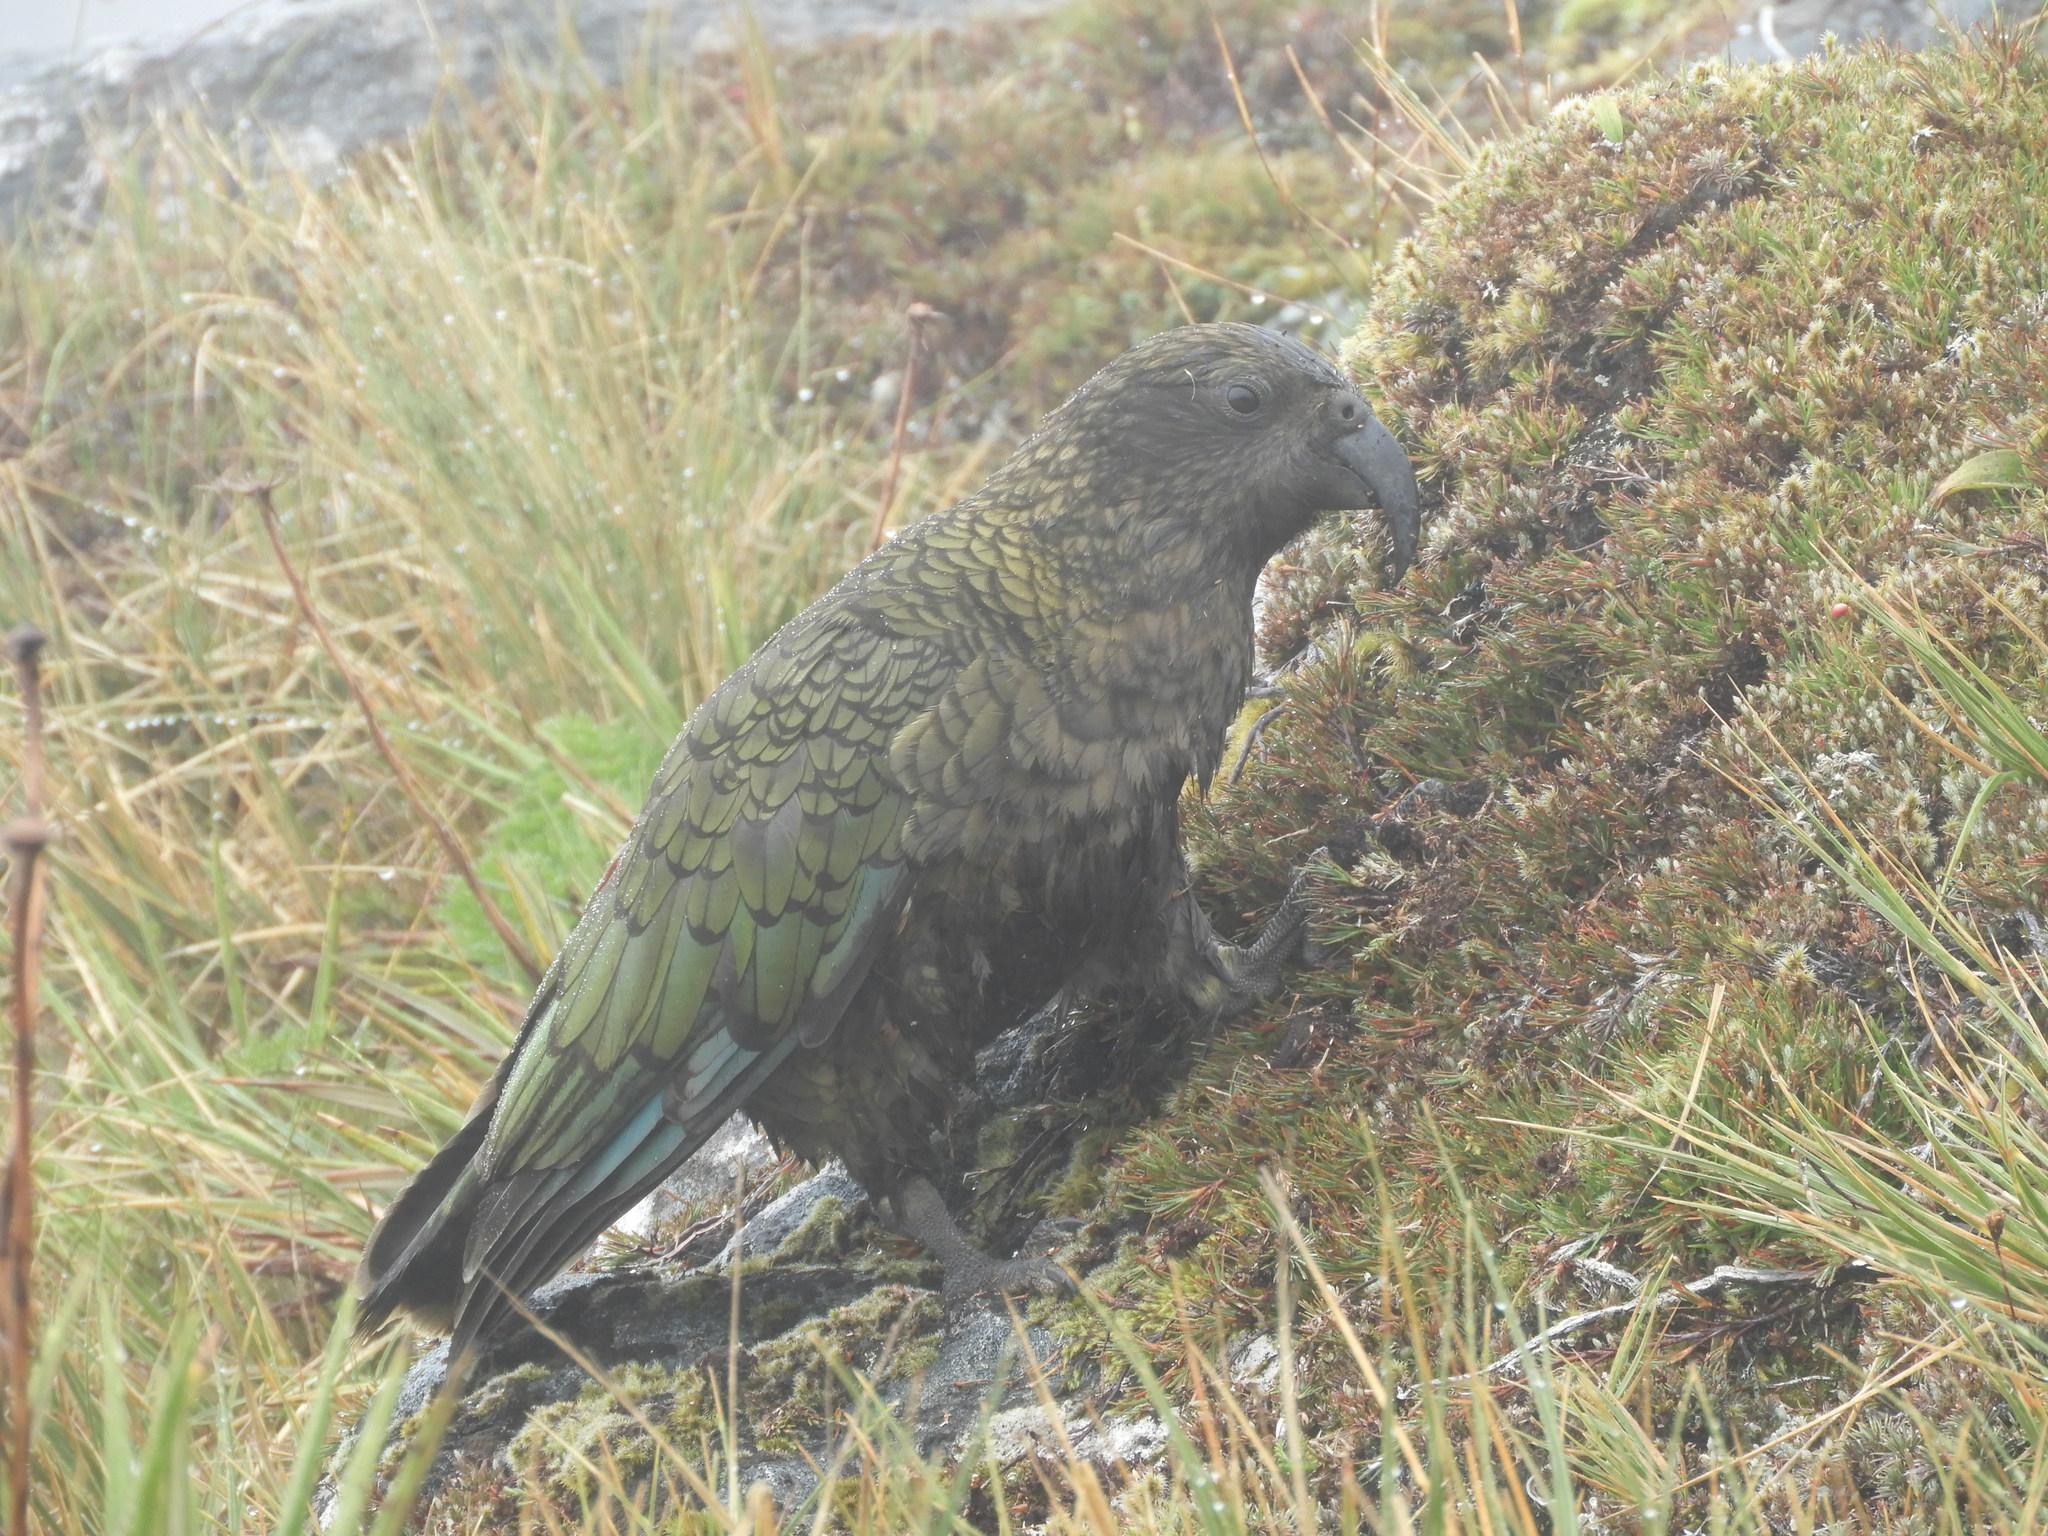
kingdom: Animalia
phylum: Chordata
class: Aves
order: Psittaciformes
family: Psittacidae
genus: Nestor
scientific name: Nestor notabilis
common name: Kea
